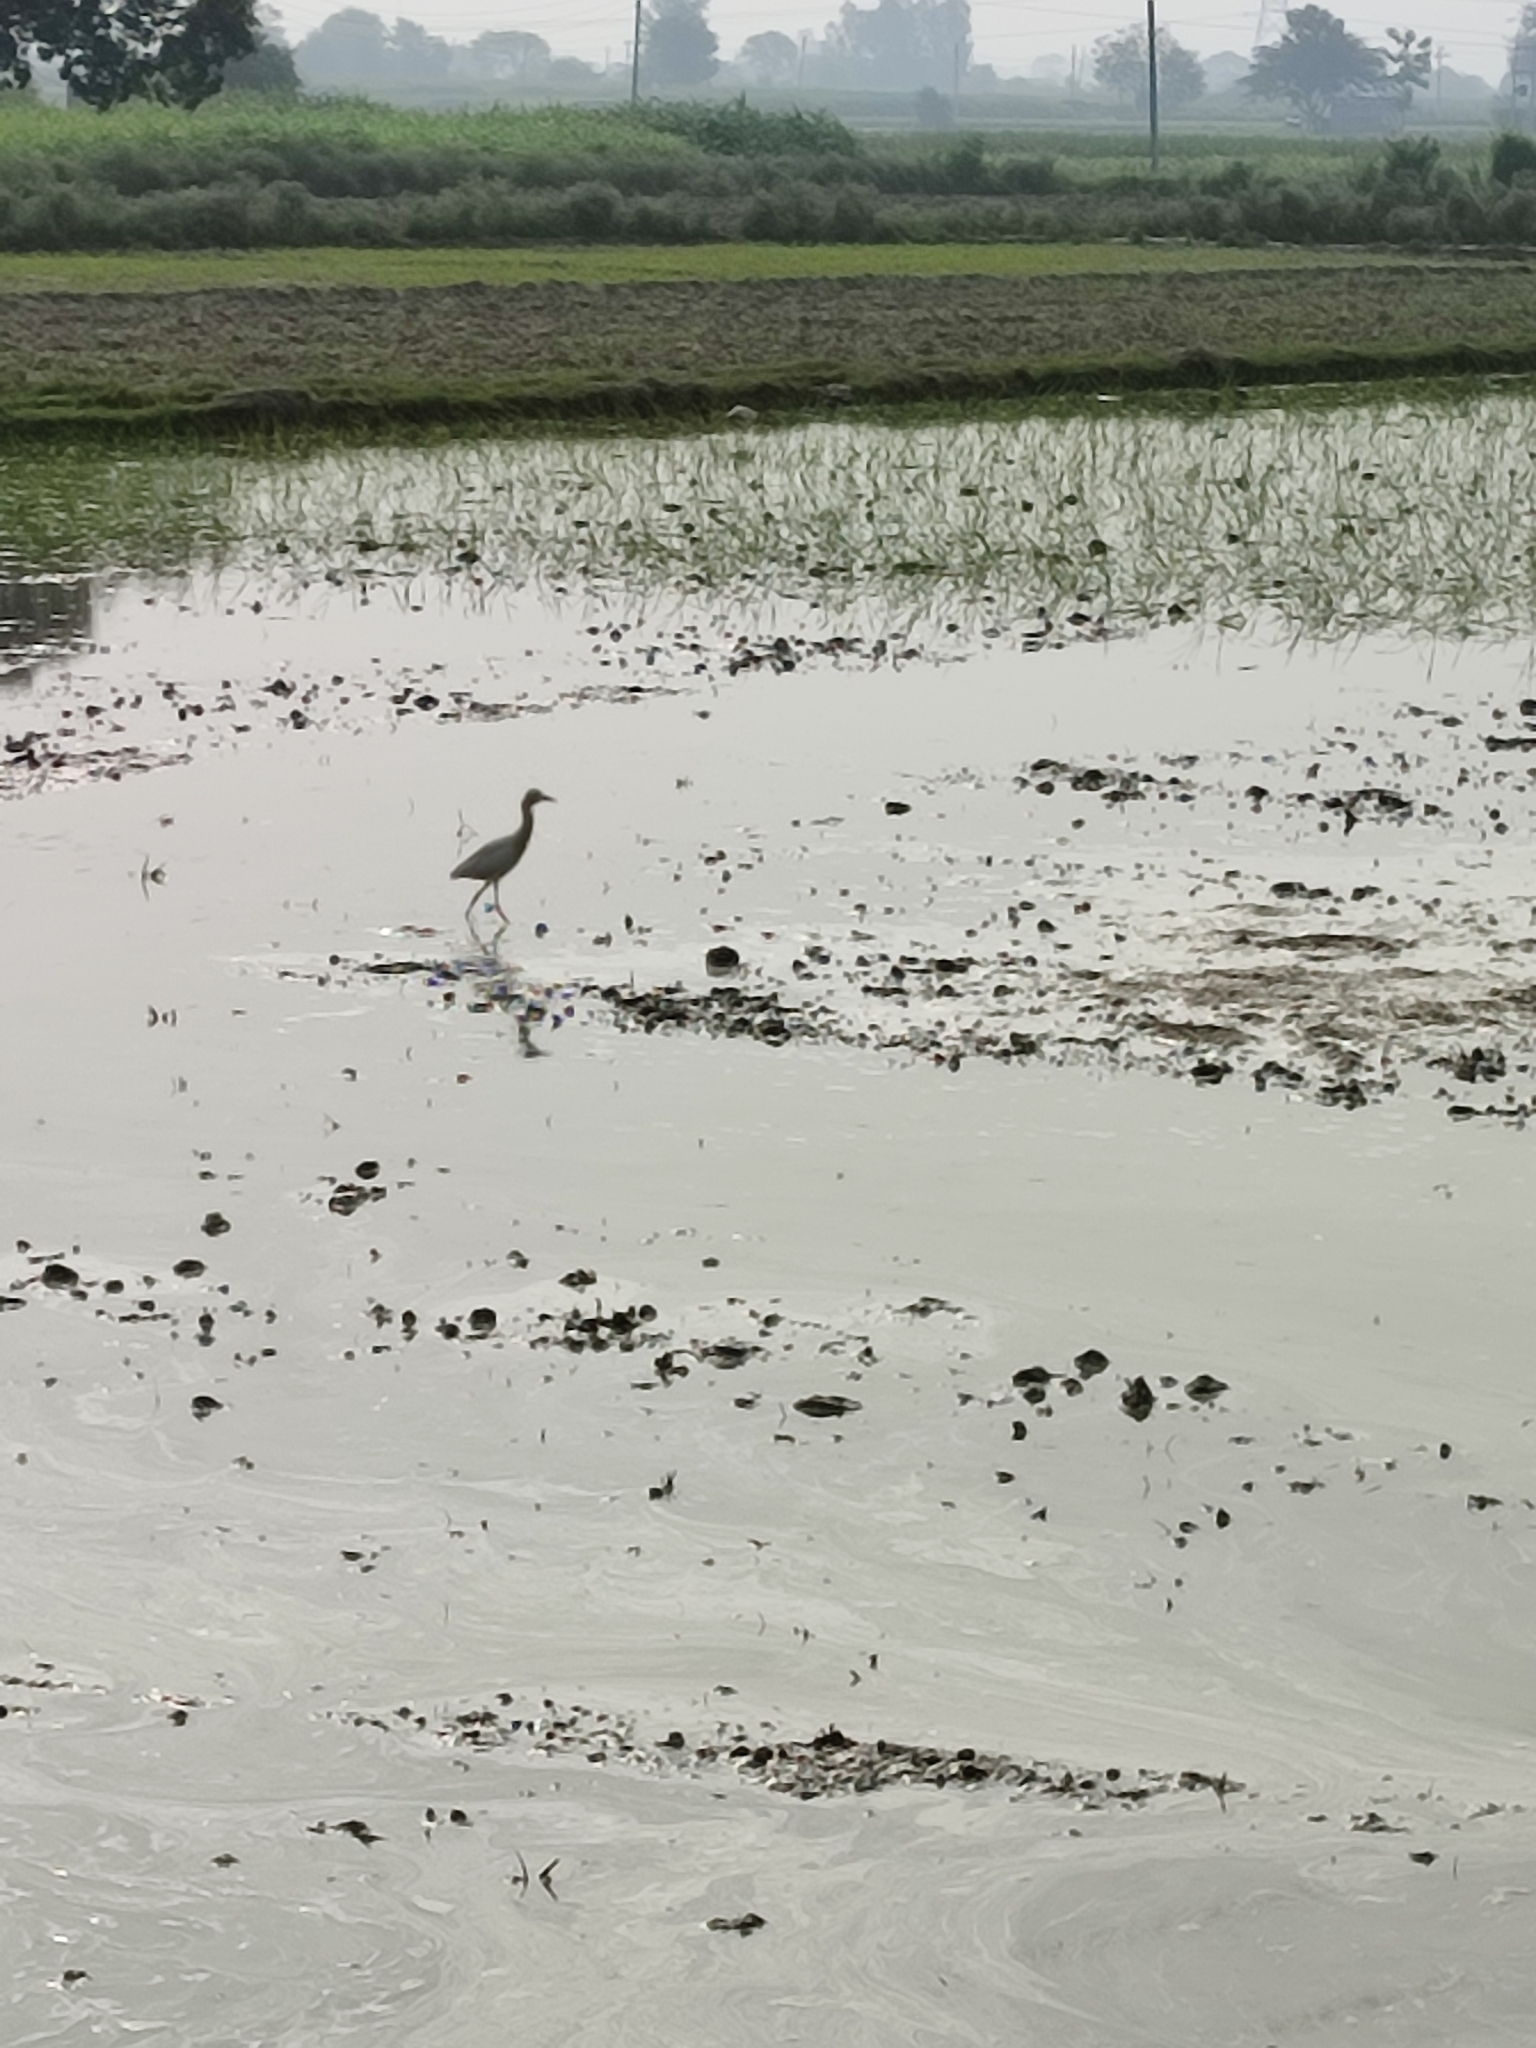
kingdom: Animalia
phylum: Chordata
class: Aves
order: Pelecaniformes
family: Ardeidae
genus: Bubulcus
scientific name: Bubulcus coromandus
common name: Eastern cattle egret
